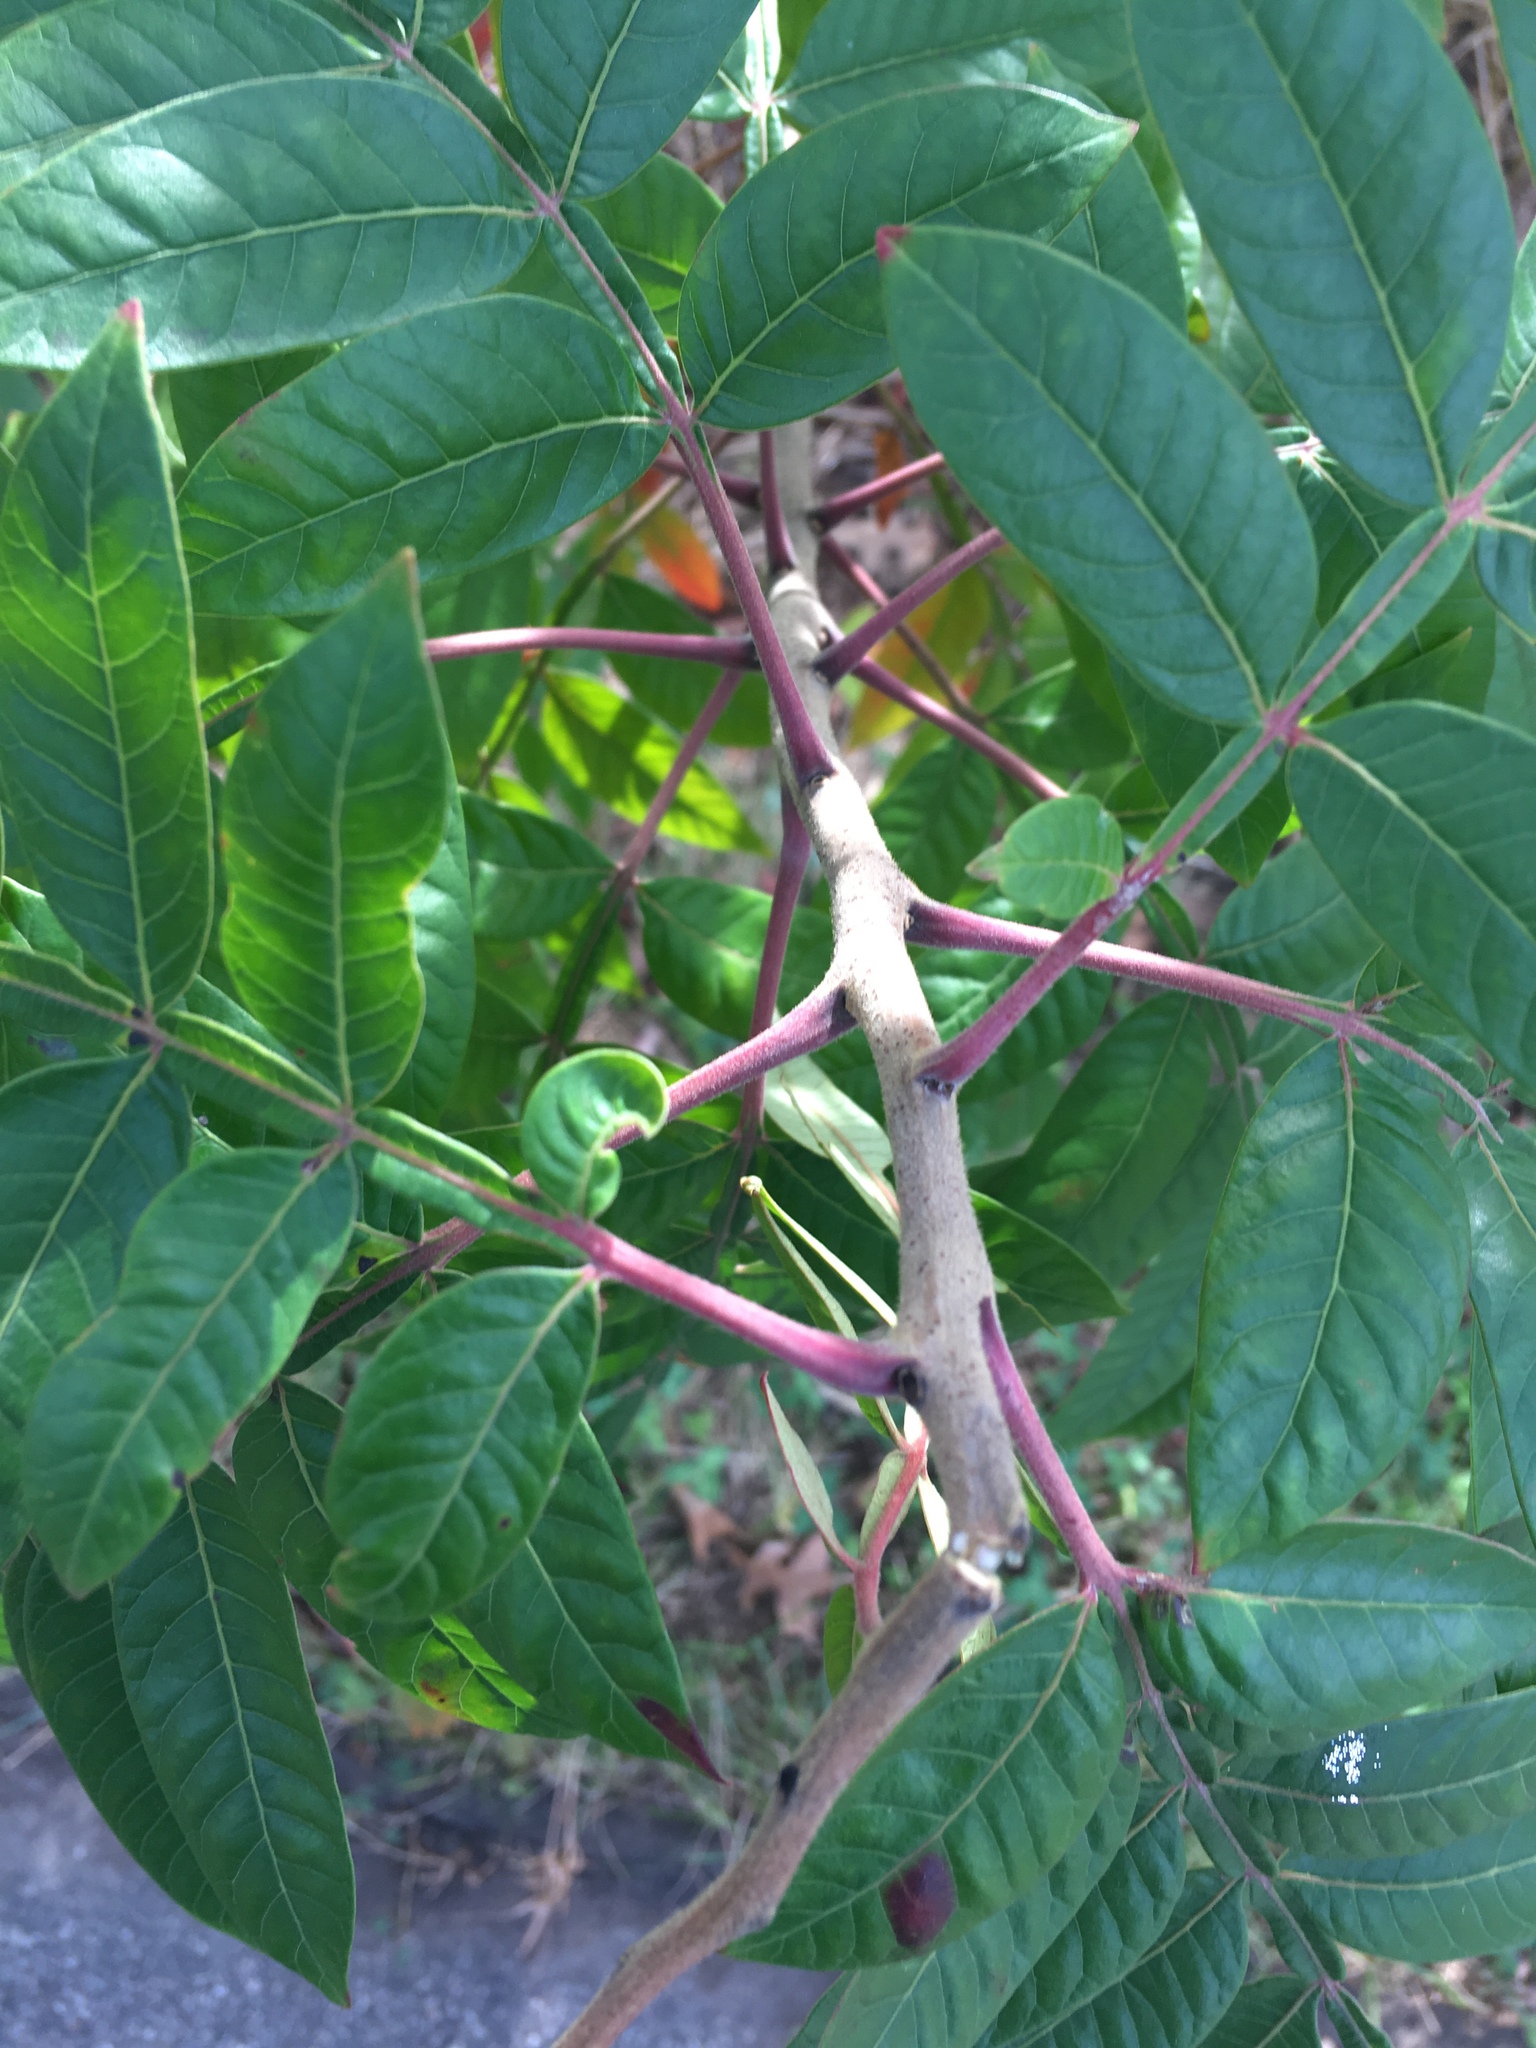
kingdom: Plantae
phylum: Tracheophyta
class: Magnoliopsida
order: Sapindales
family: Anacardiaceae
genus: Rhus
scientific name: Rhus copallina
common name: Shining sumac
